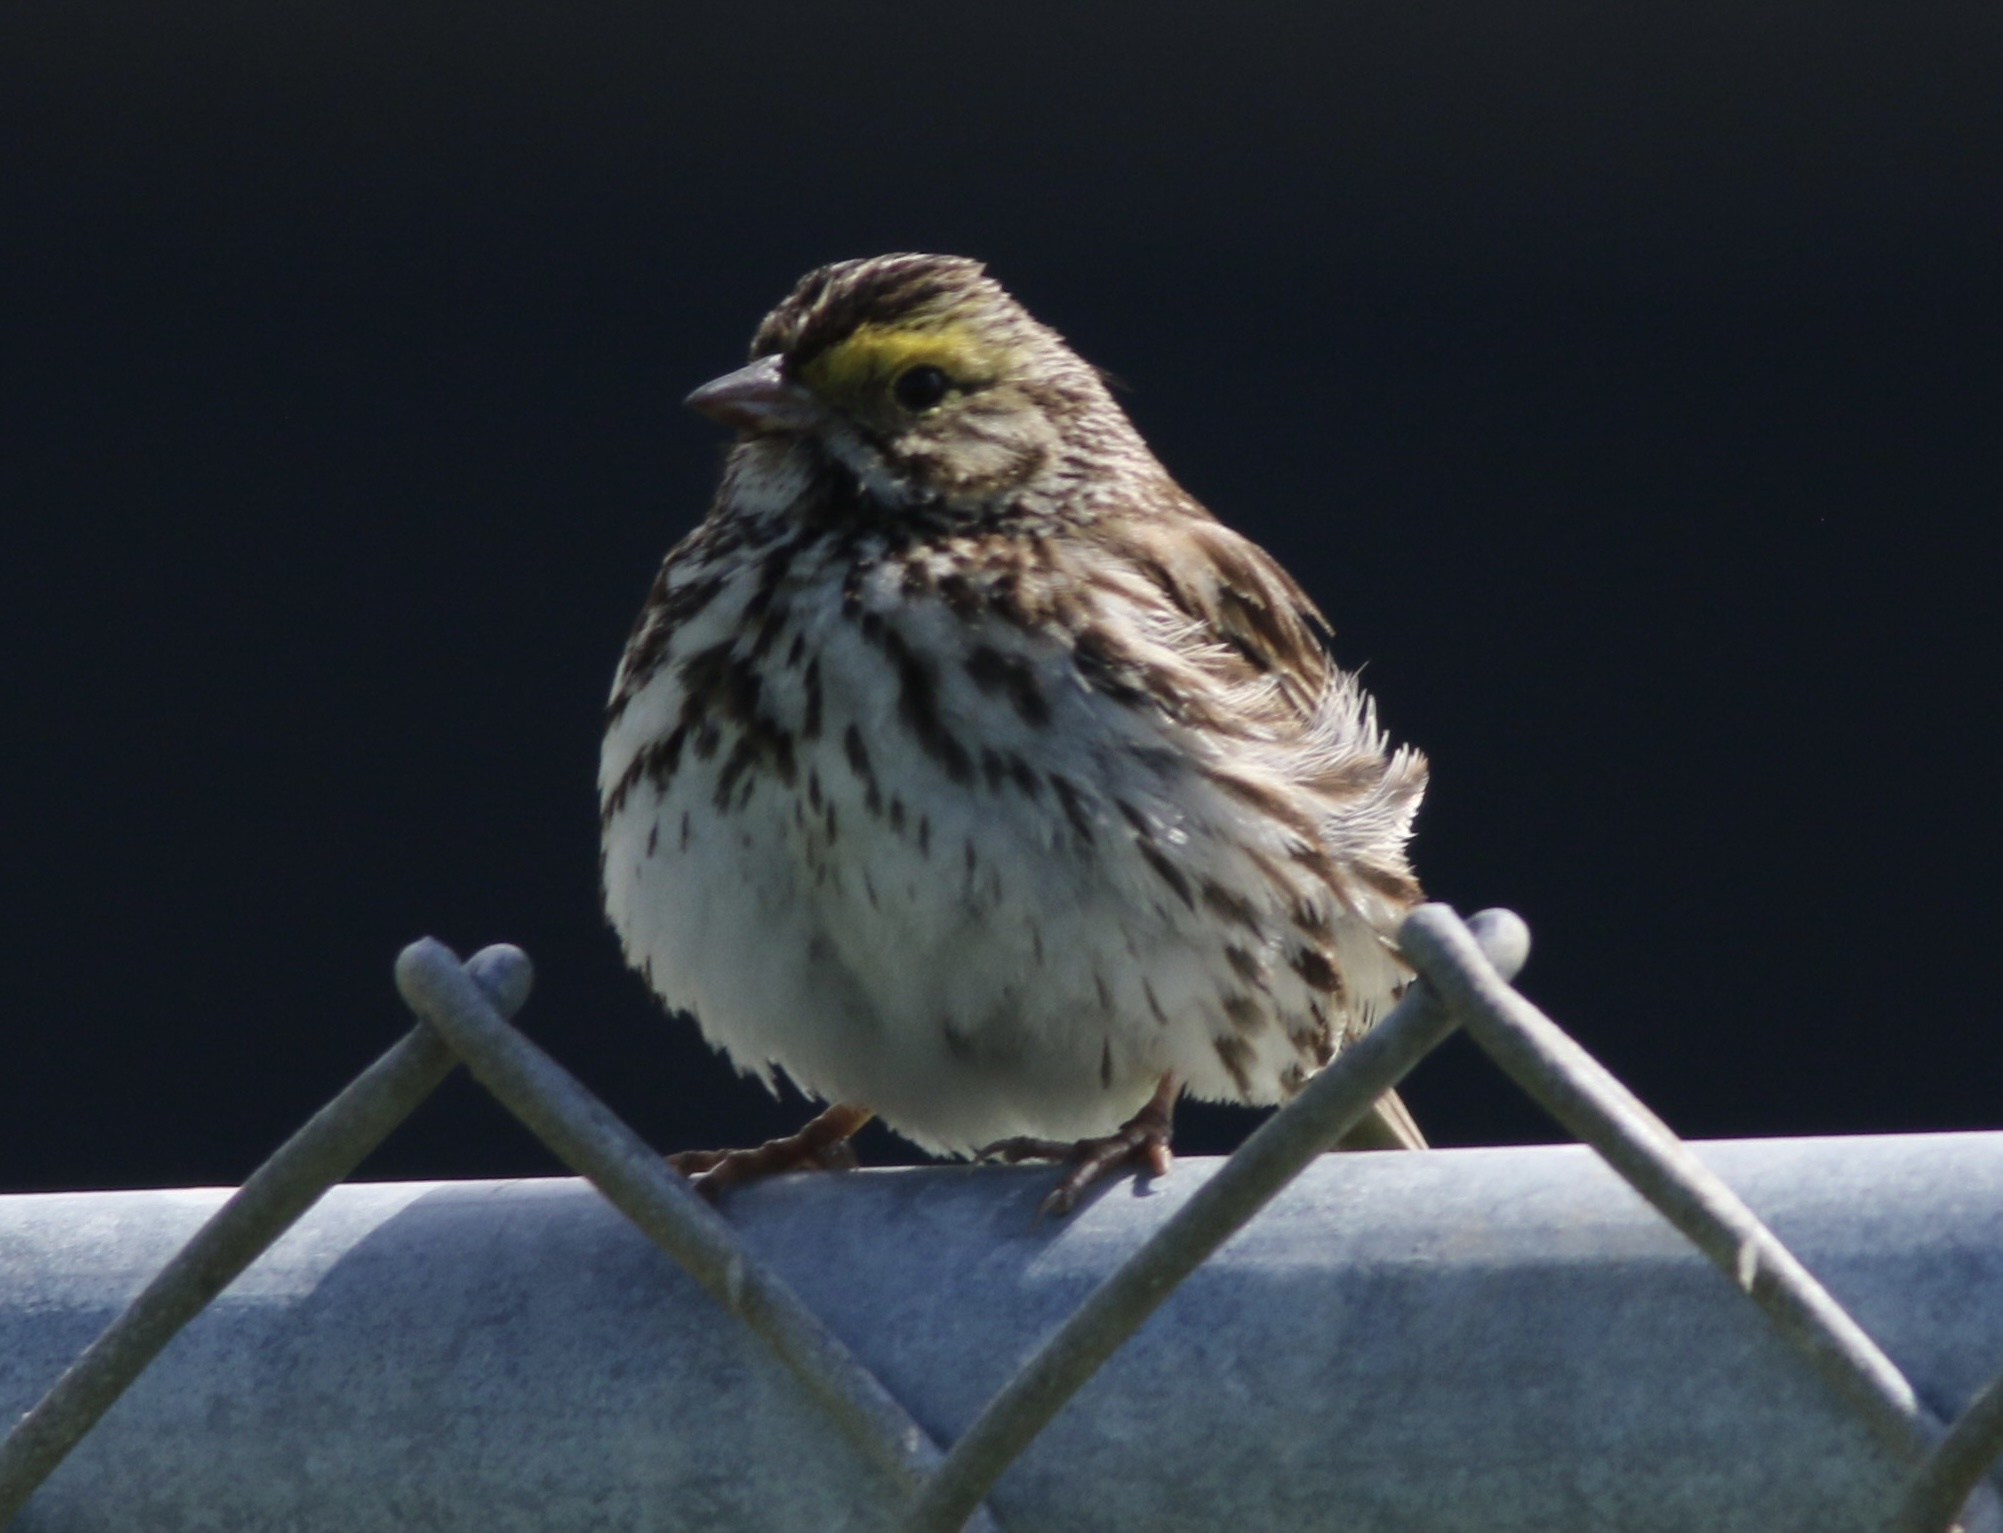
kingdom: Animalia
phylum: Chordata
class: Aves
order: Passeriformes
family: Passerellidae
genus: Passerculus
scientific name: Passerculus sandwichensis
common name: Savannah sparrow
